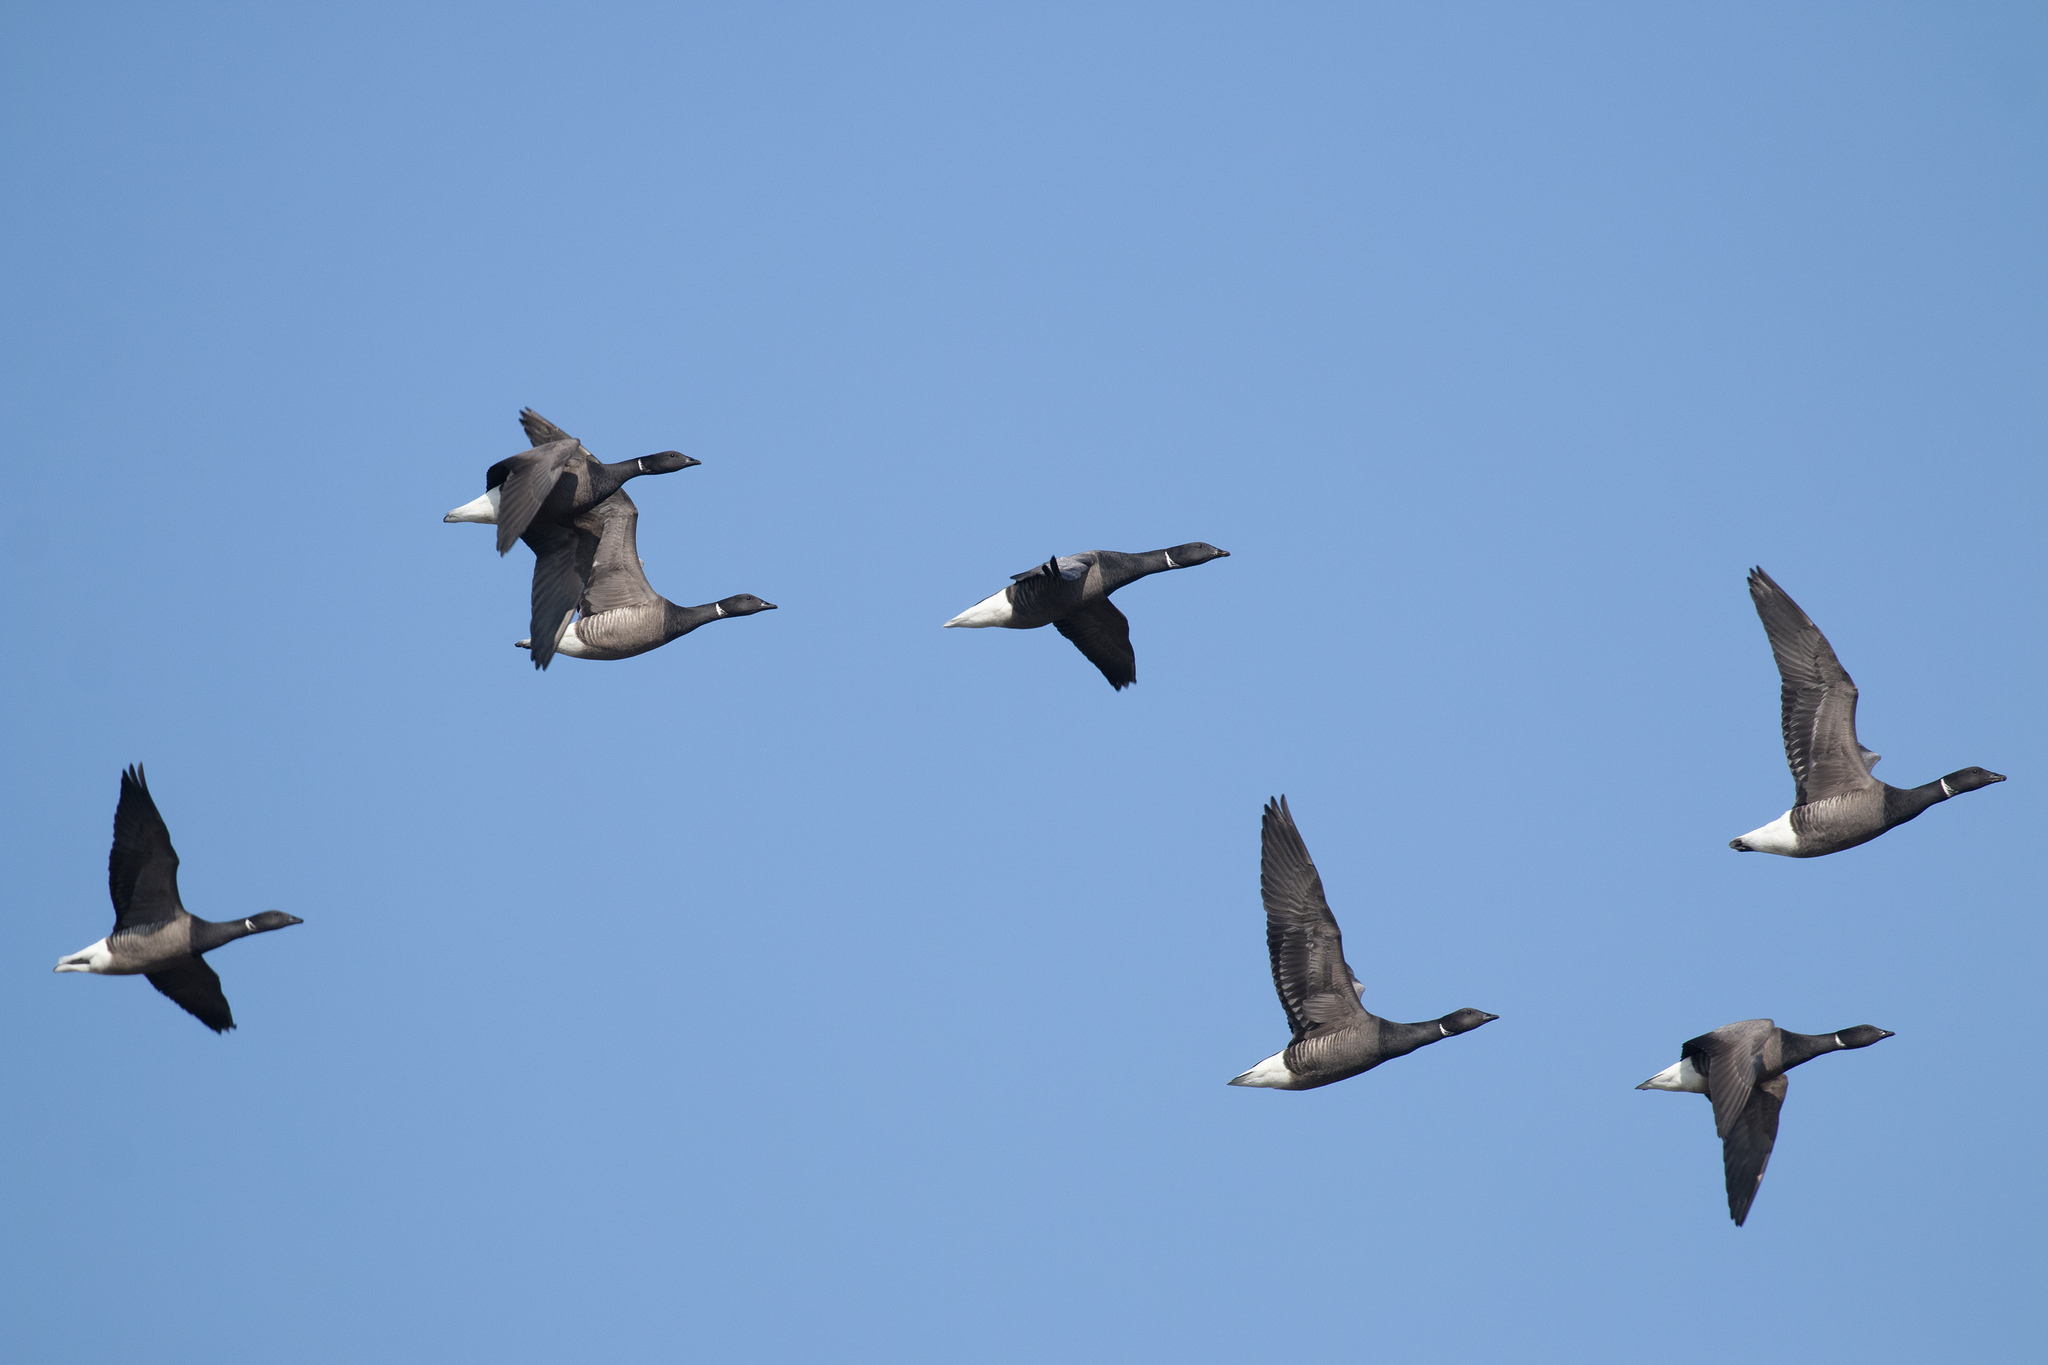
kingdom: Animalia
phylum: Chordata
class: Aves
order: Anseriformes
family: Anatidae
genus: Branta
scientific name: Branta bernicla
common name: Brant goose
